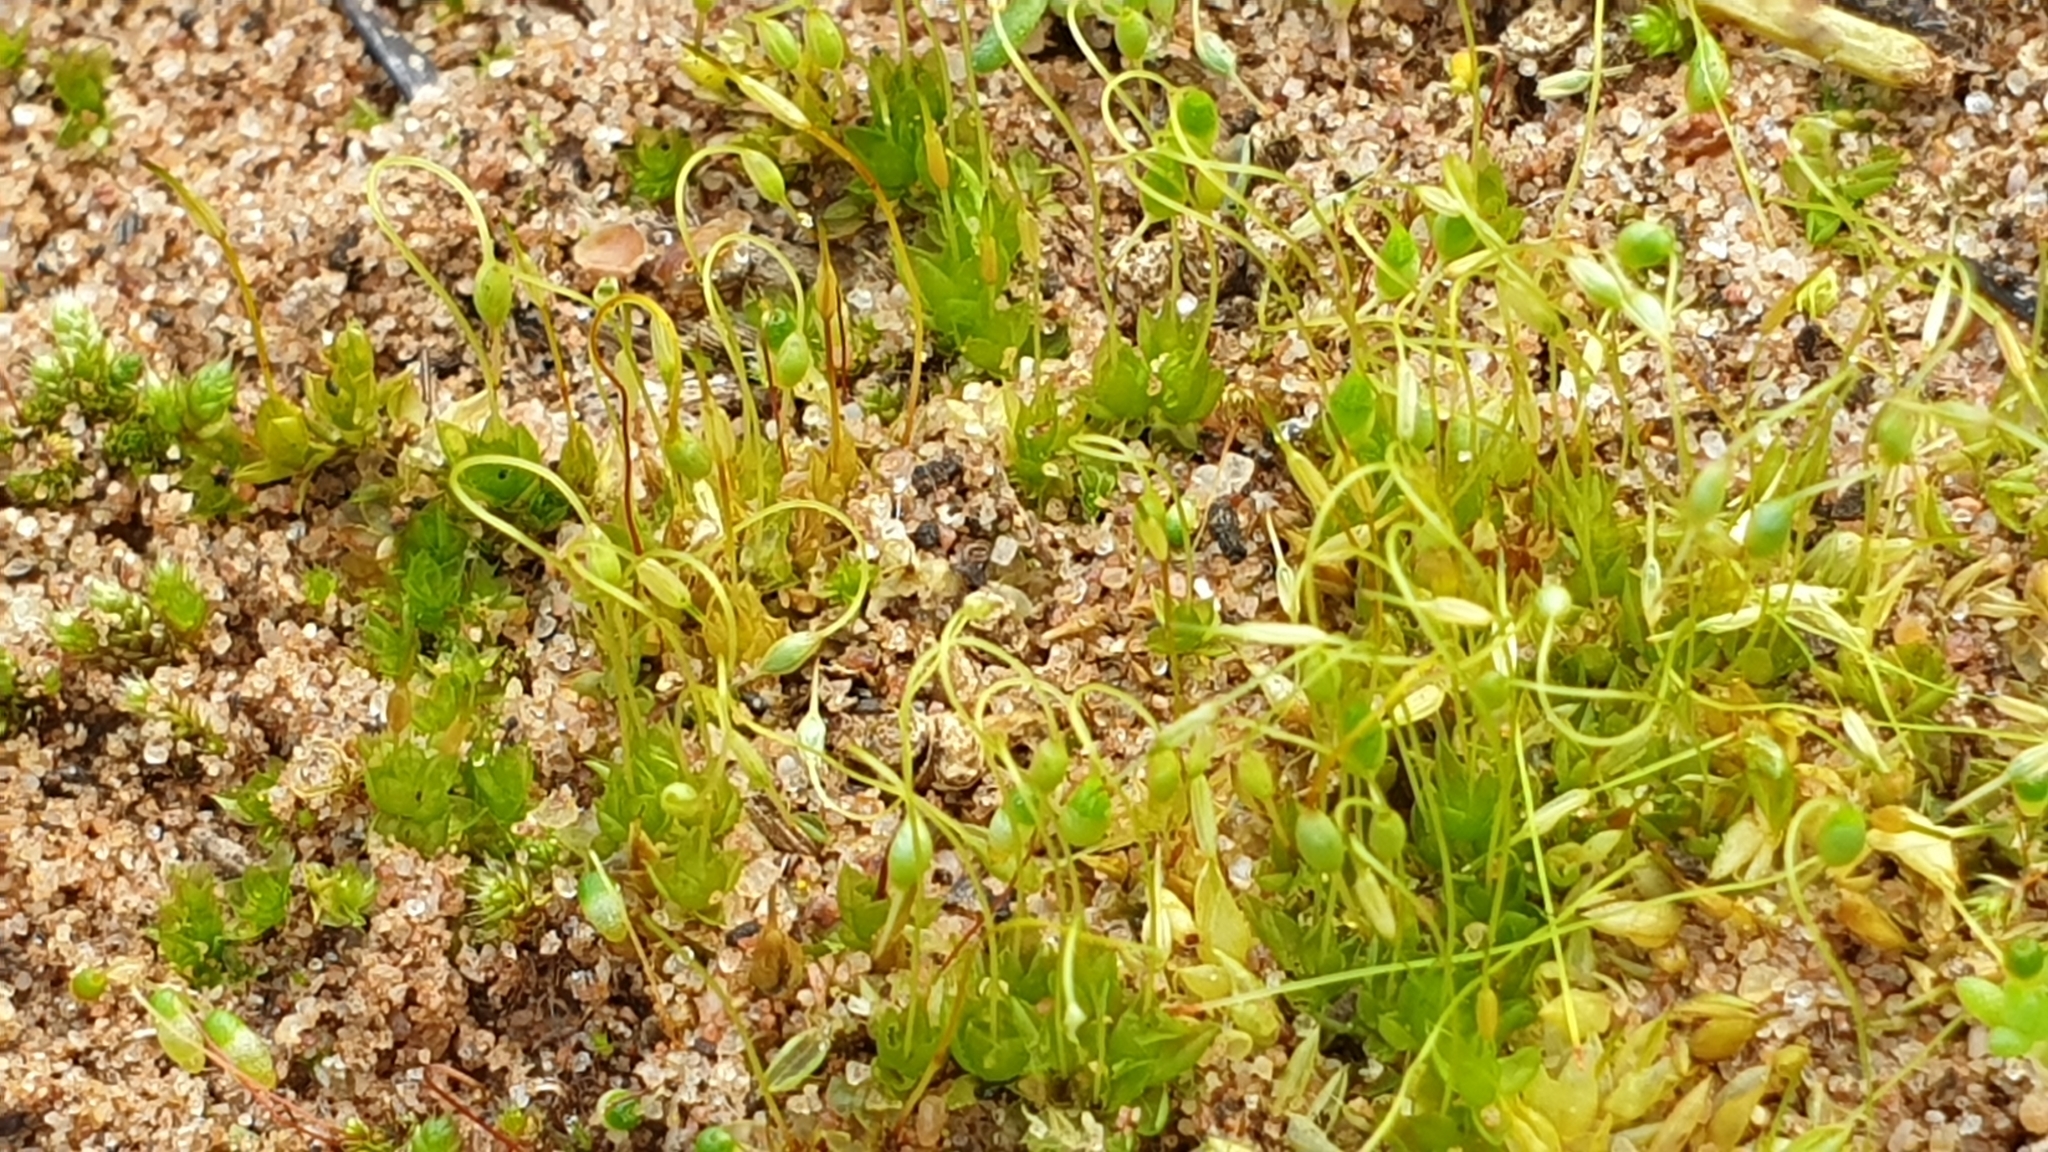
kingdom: Plantae
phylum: Bryophyta
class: Bryopsida
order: Funariales
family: Funariaceae
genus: Funaria
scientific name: Funaria hygrometrica
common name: Common cord moss
